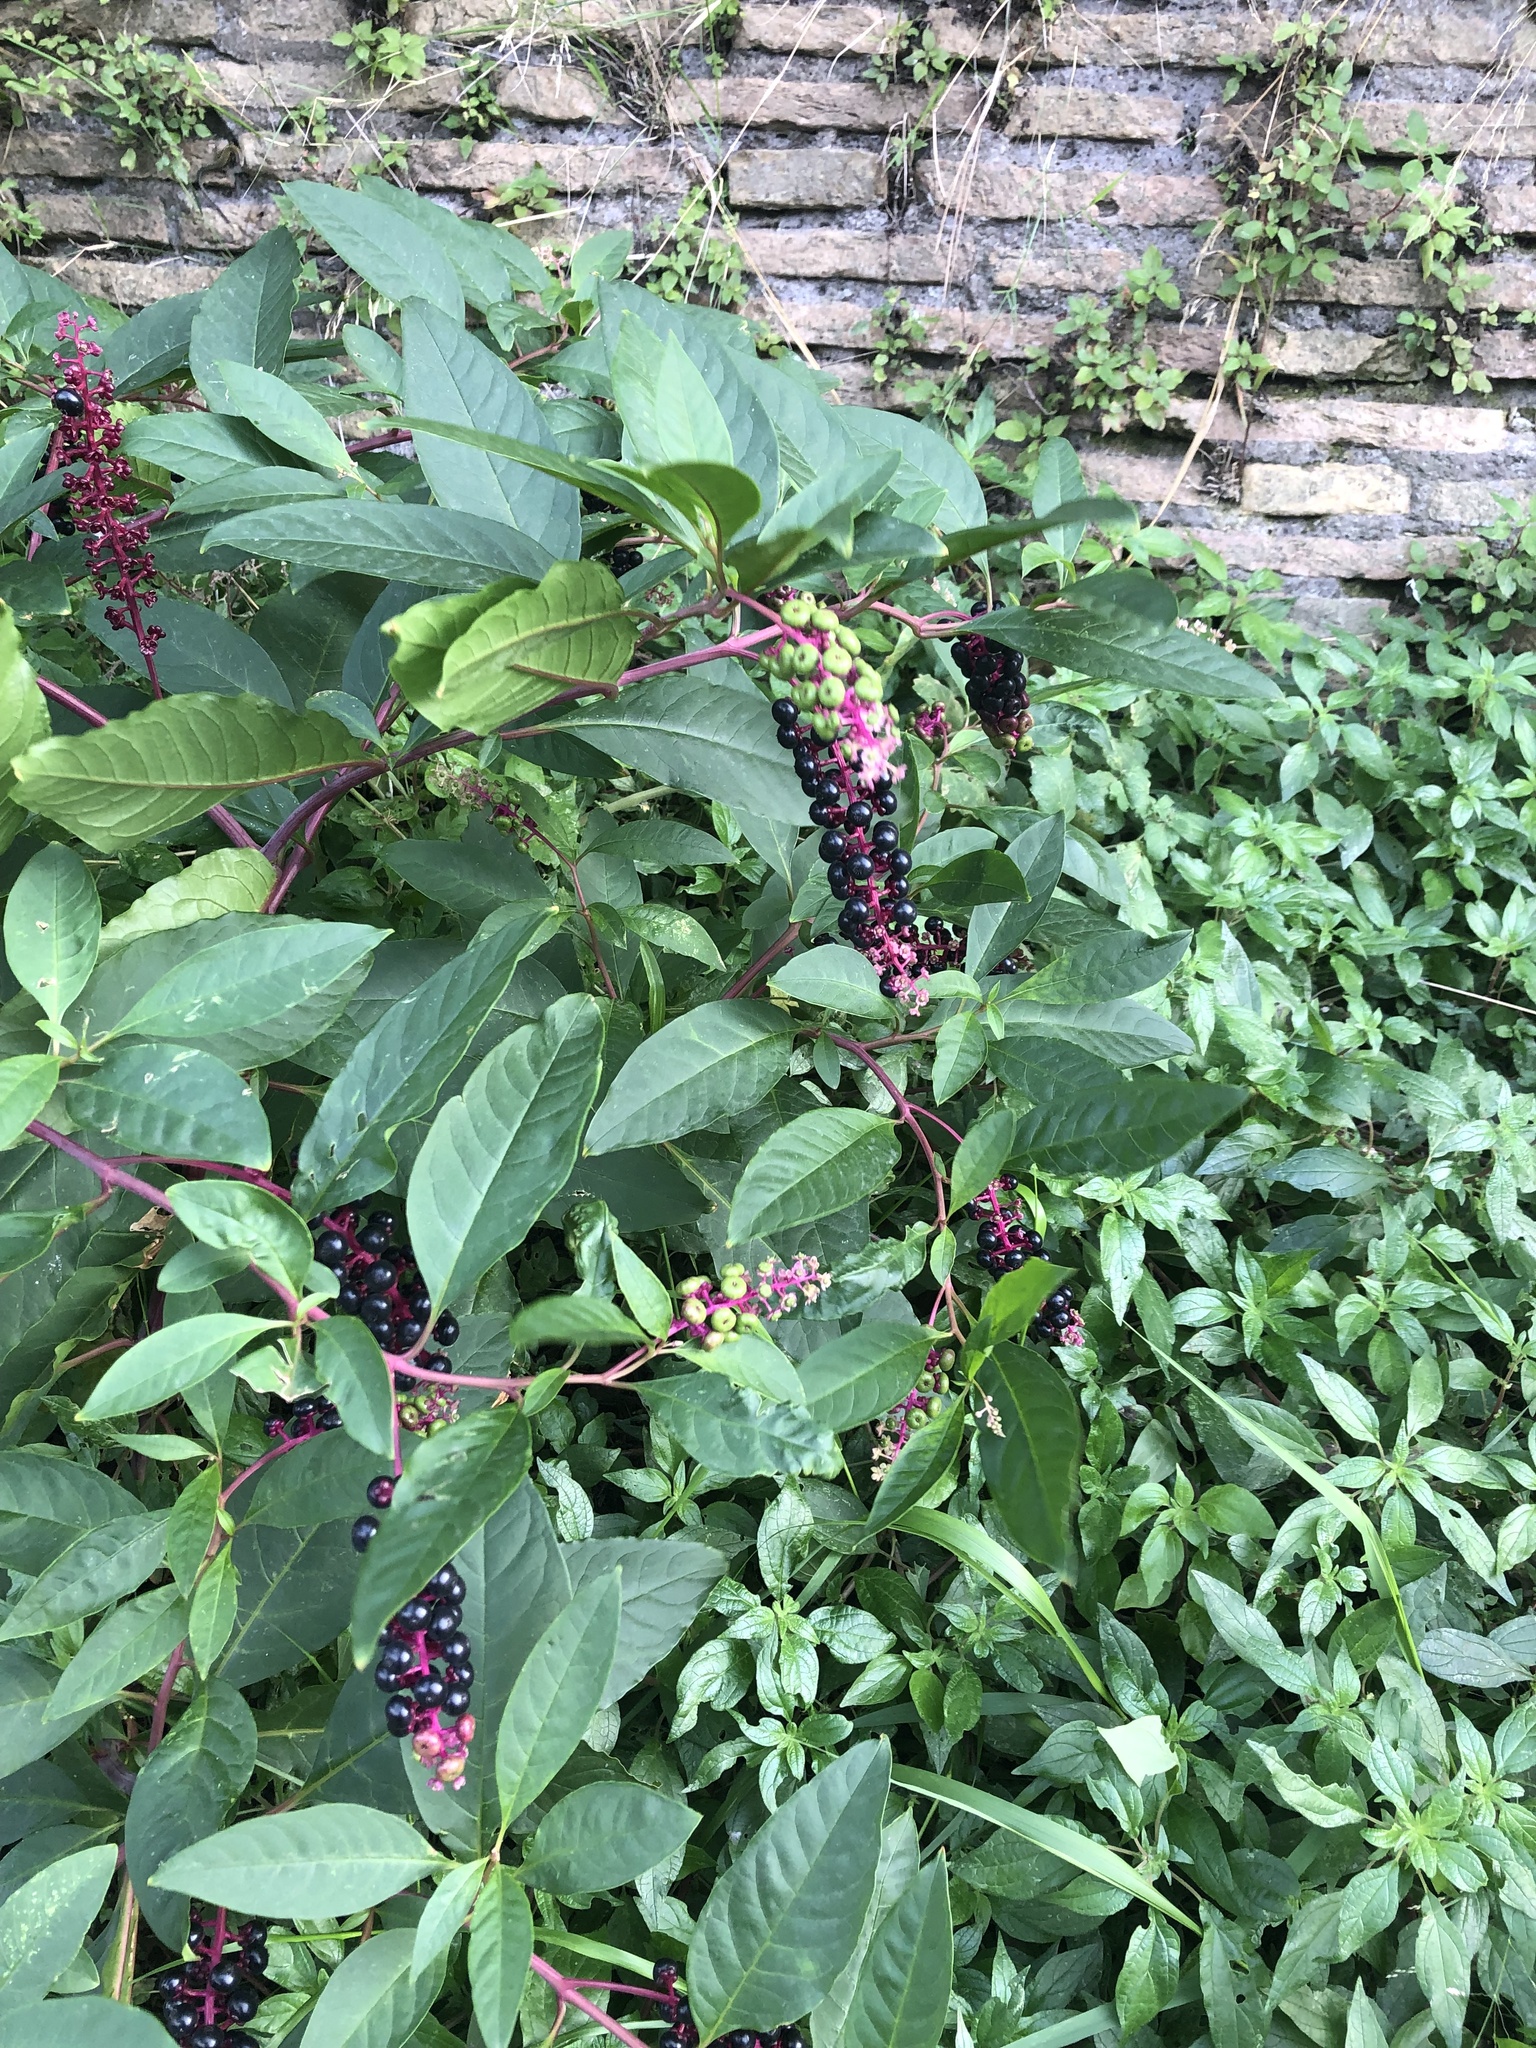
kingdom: Plantae
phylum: Tracheophyta
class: Magnoliopsida
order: Caryophyllales
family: Phytolaccaceae
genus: Phytolacca
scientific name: Phytolacca americana
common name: American pokeweed
